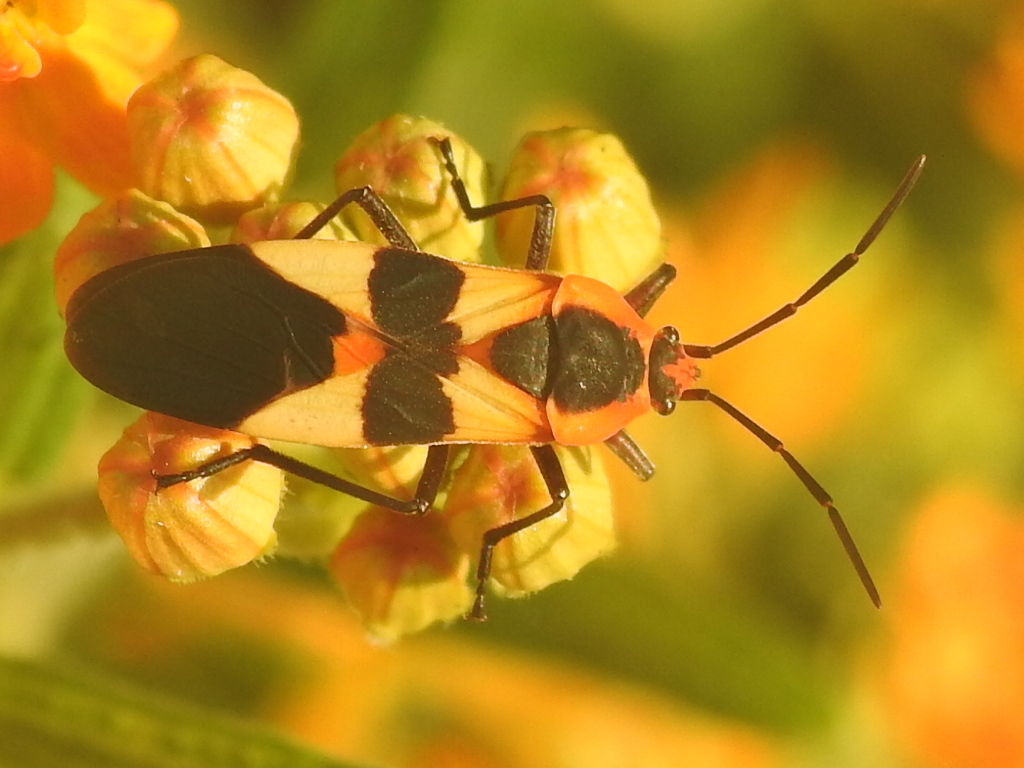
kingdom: Animalia
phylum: Arthropoda
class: Insecta
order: Hemiptera
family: Lygaeidae
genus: Oncopeltus
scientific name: Oncopeltus fasciatus
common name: Large milkweed bug
